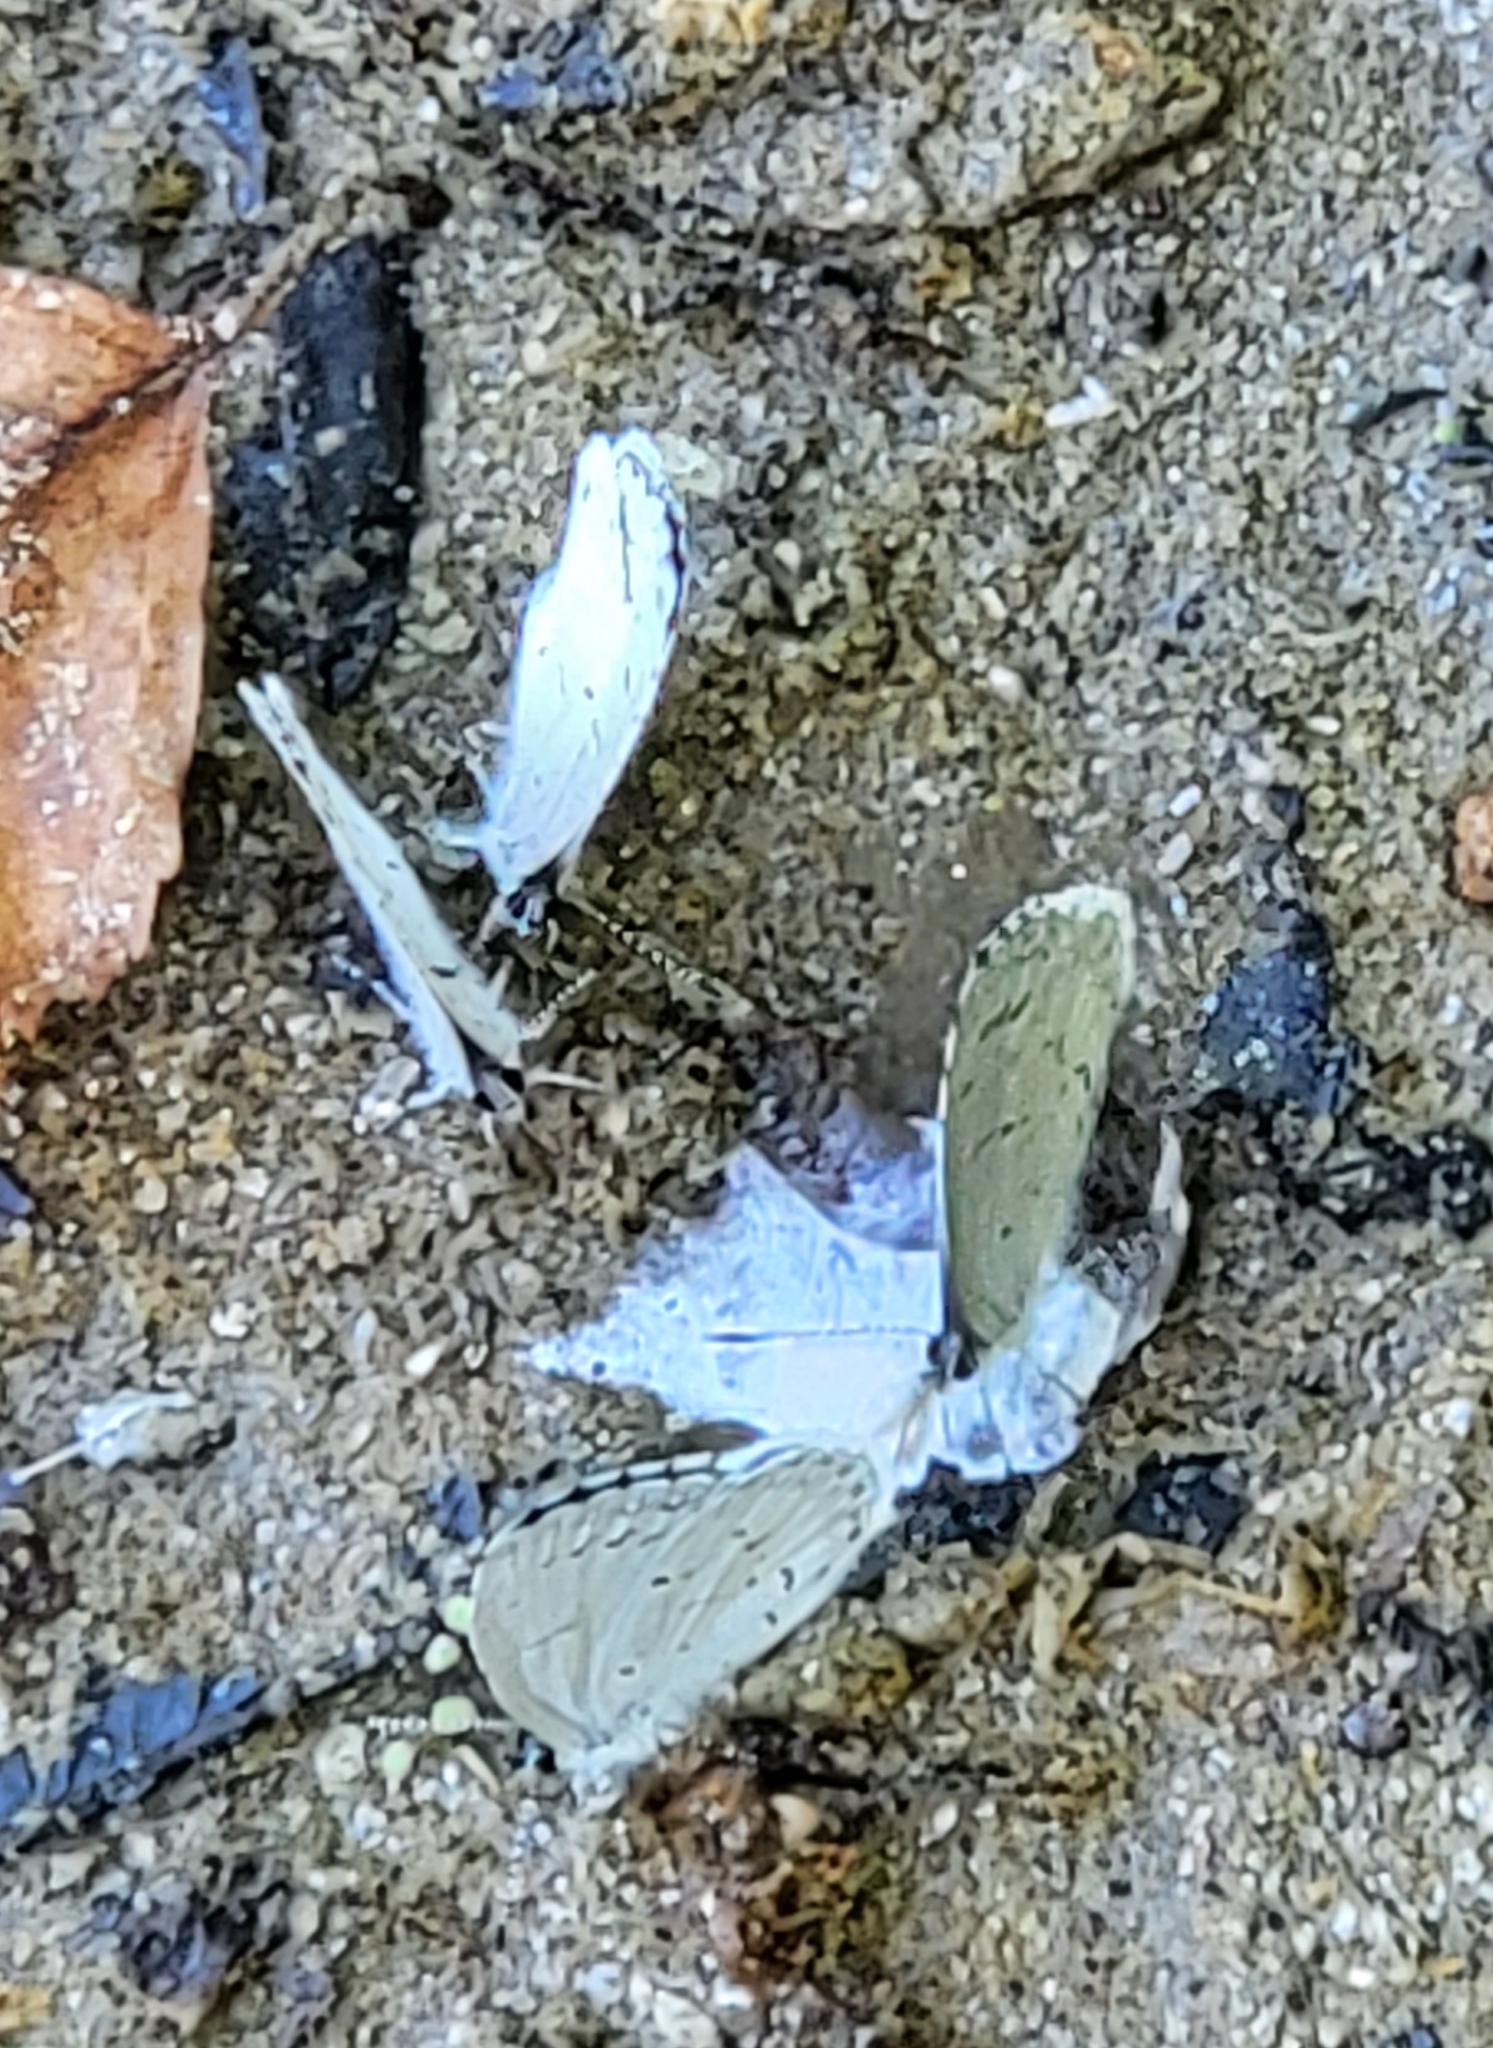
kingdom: Animalia
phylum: Arthropoda
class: Insecta
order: Lepidoptera
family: Lycaenidae
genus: Cyaniris
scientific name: Cyaniris neglecta
